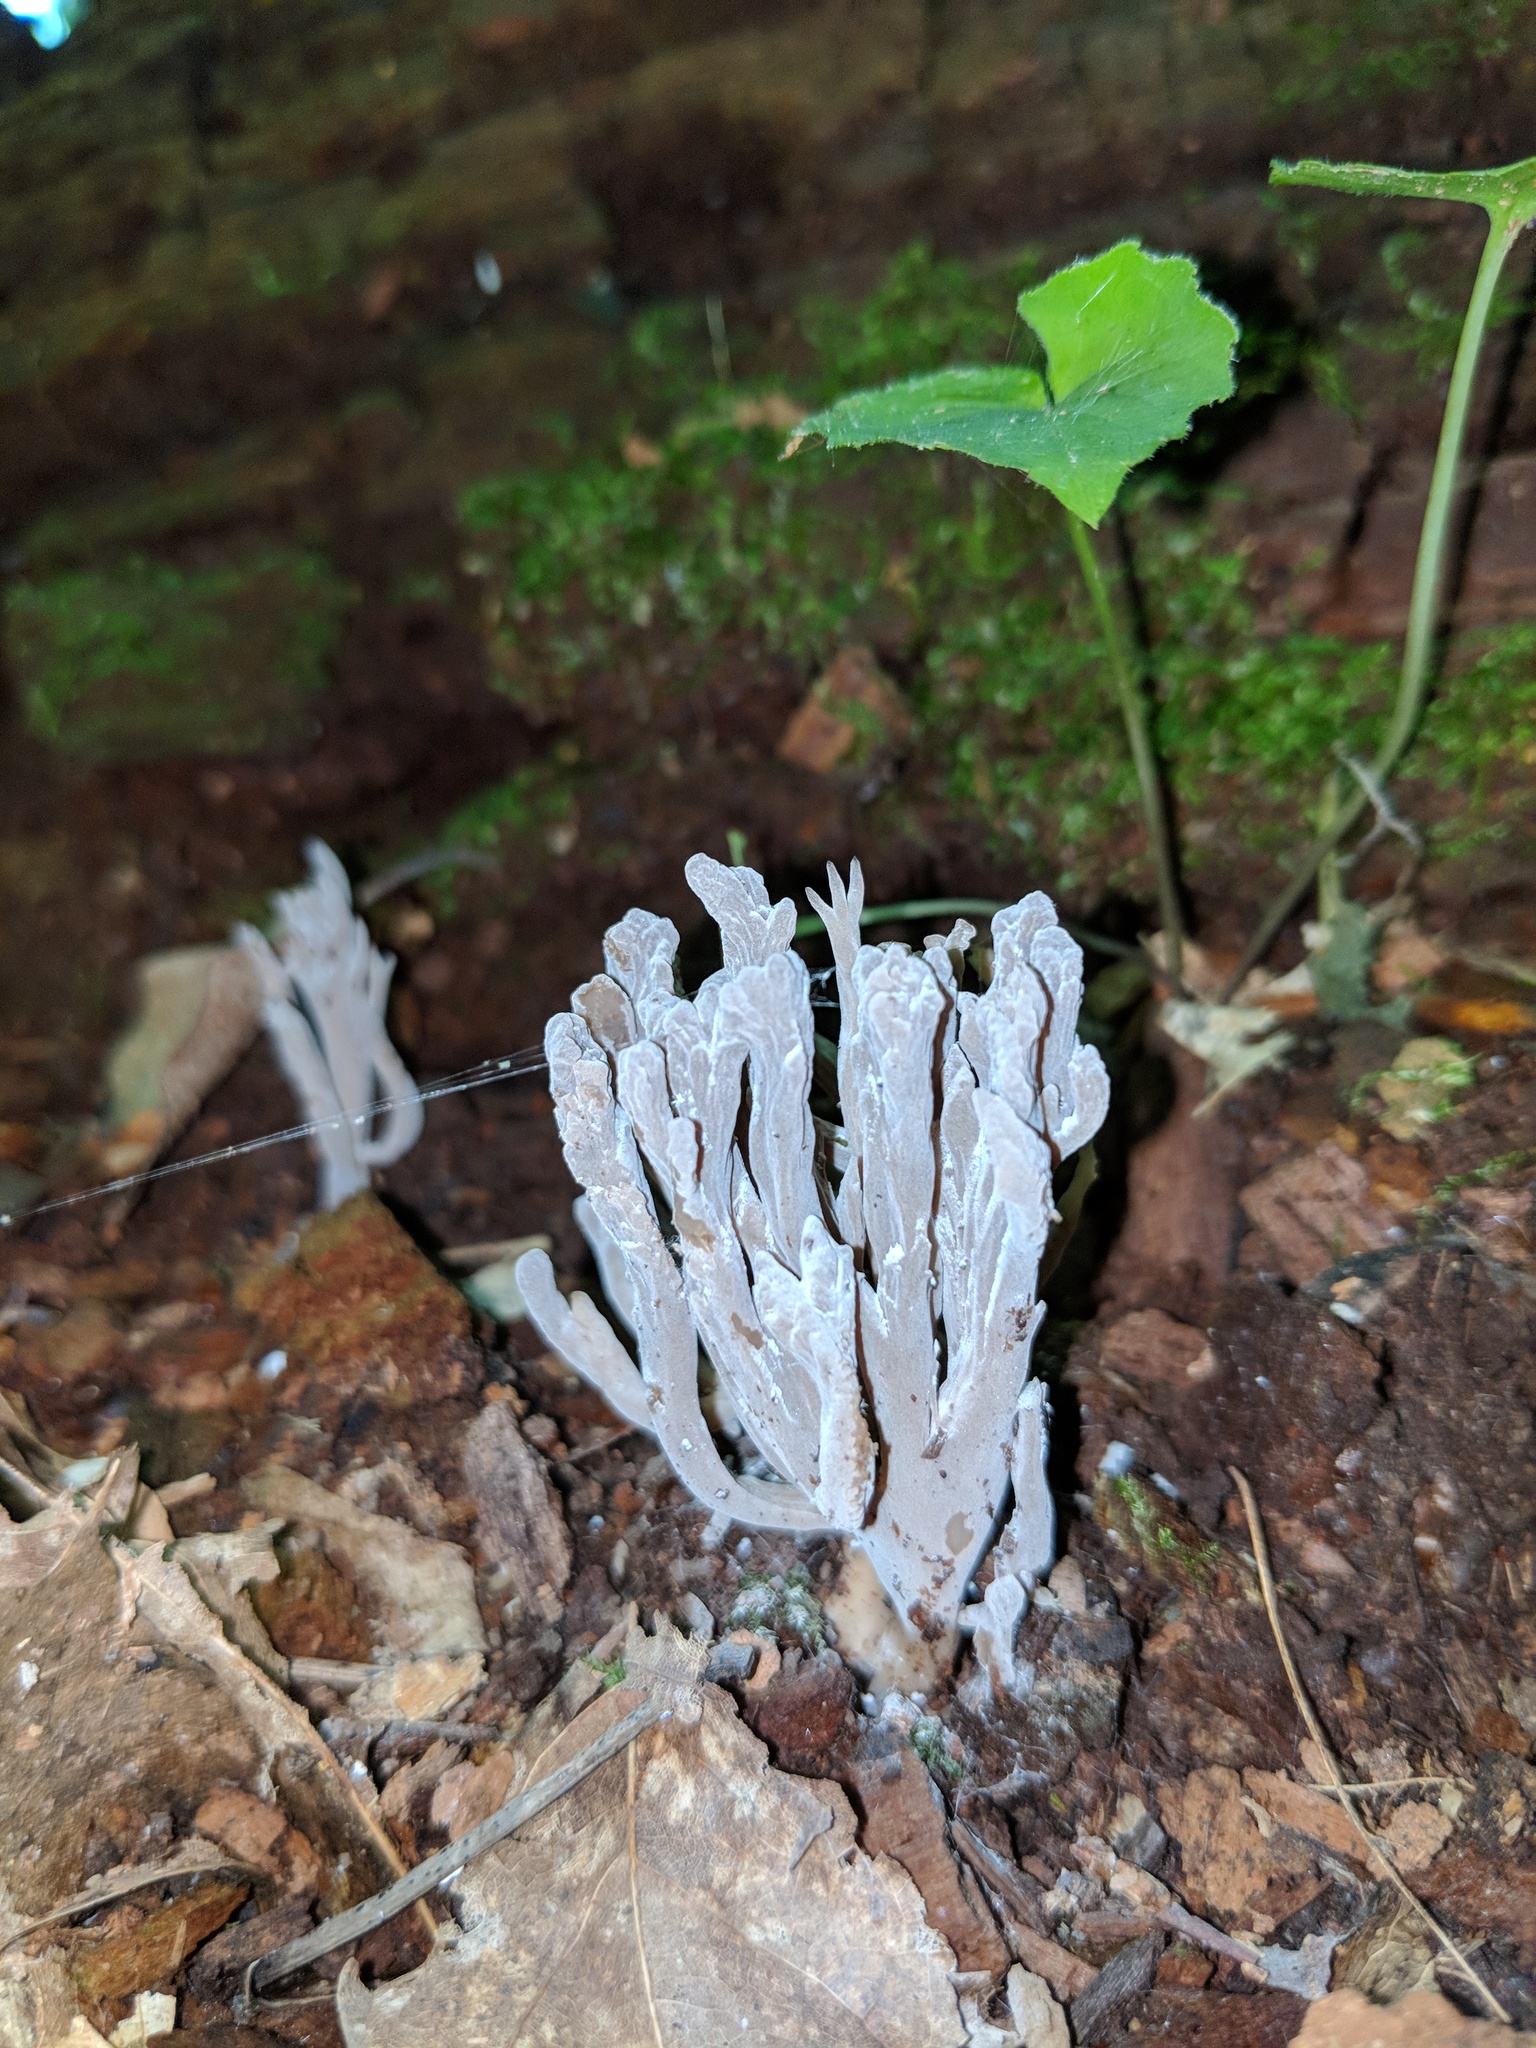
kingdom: Fungi
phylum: Basidiomycota
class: Agaricomycetes
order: Cantharellales
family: Hydnaceae
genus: Clavulina
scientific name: Clavulina cinerea
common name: Grey coral
